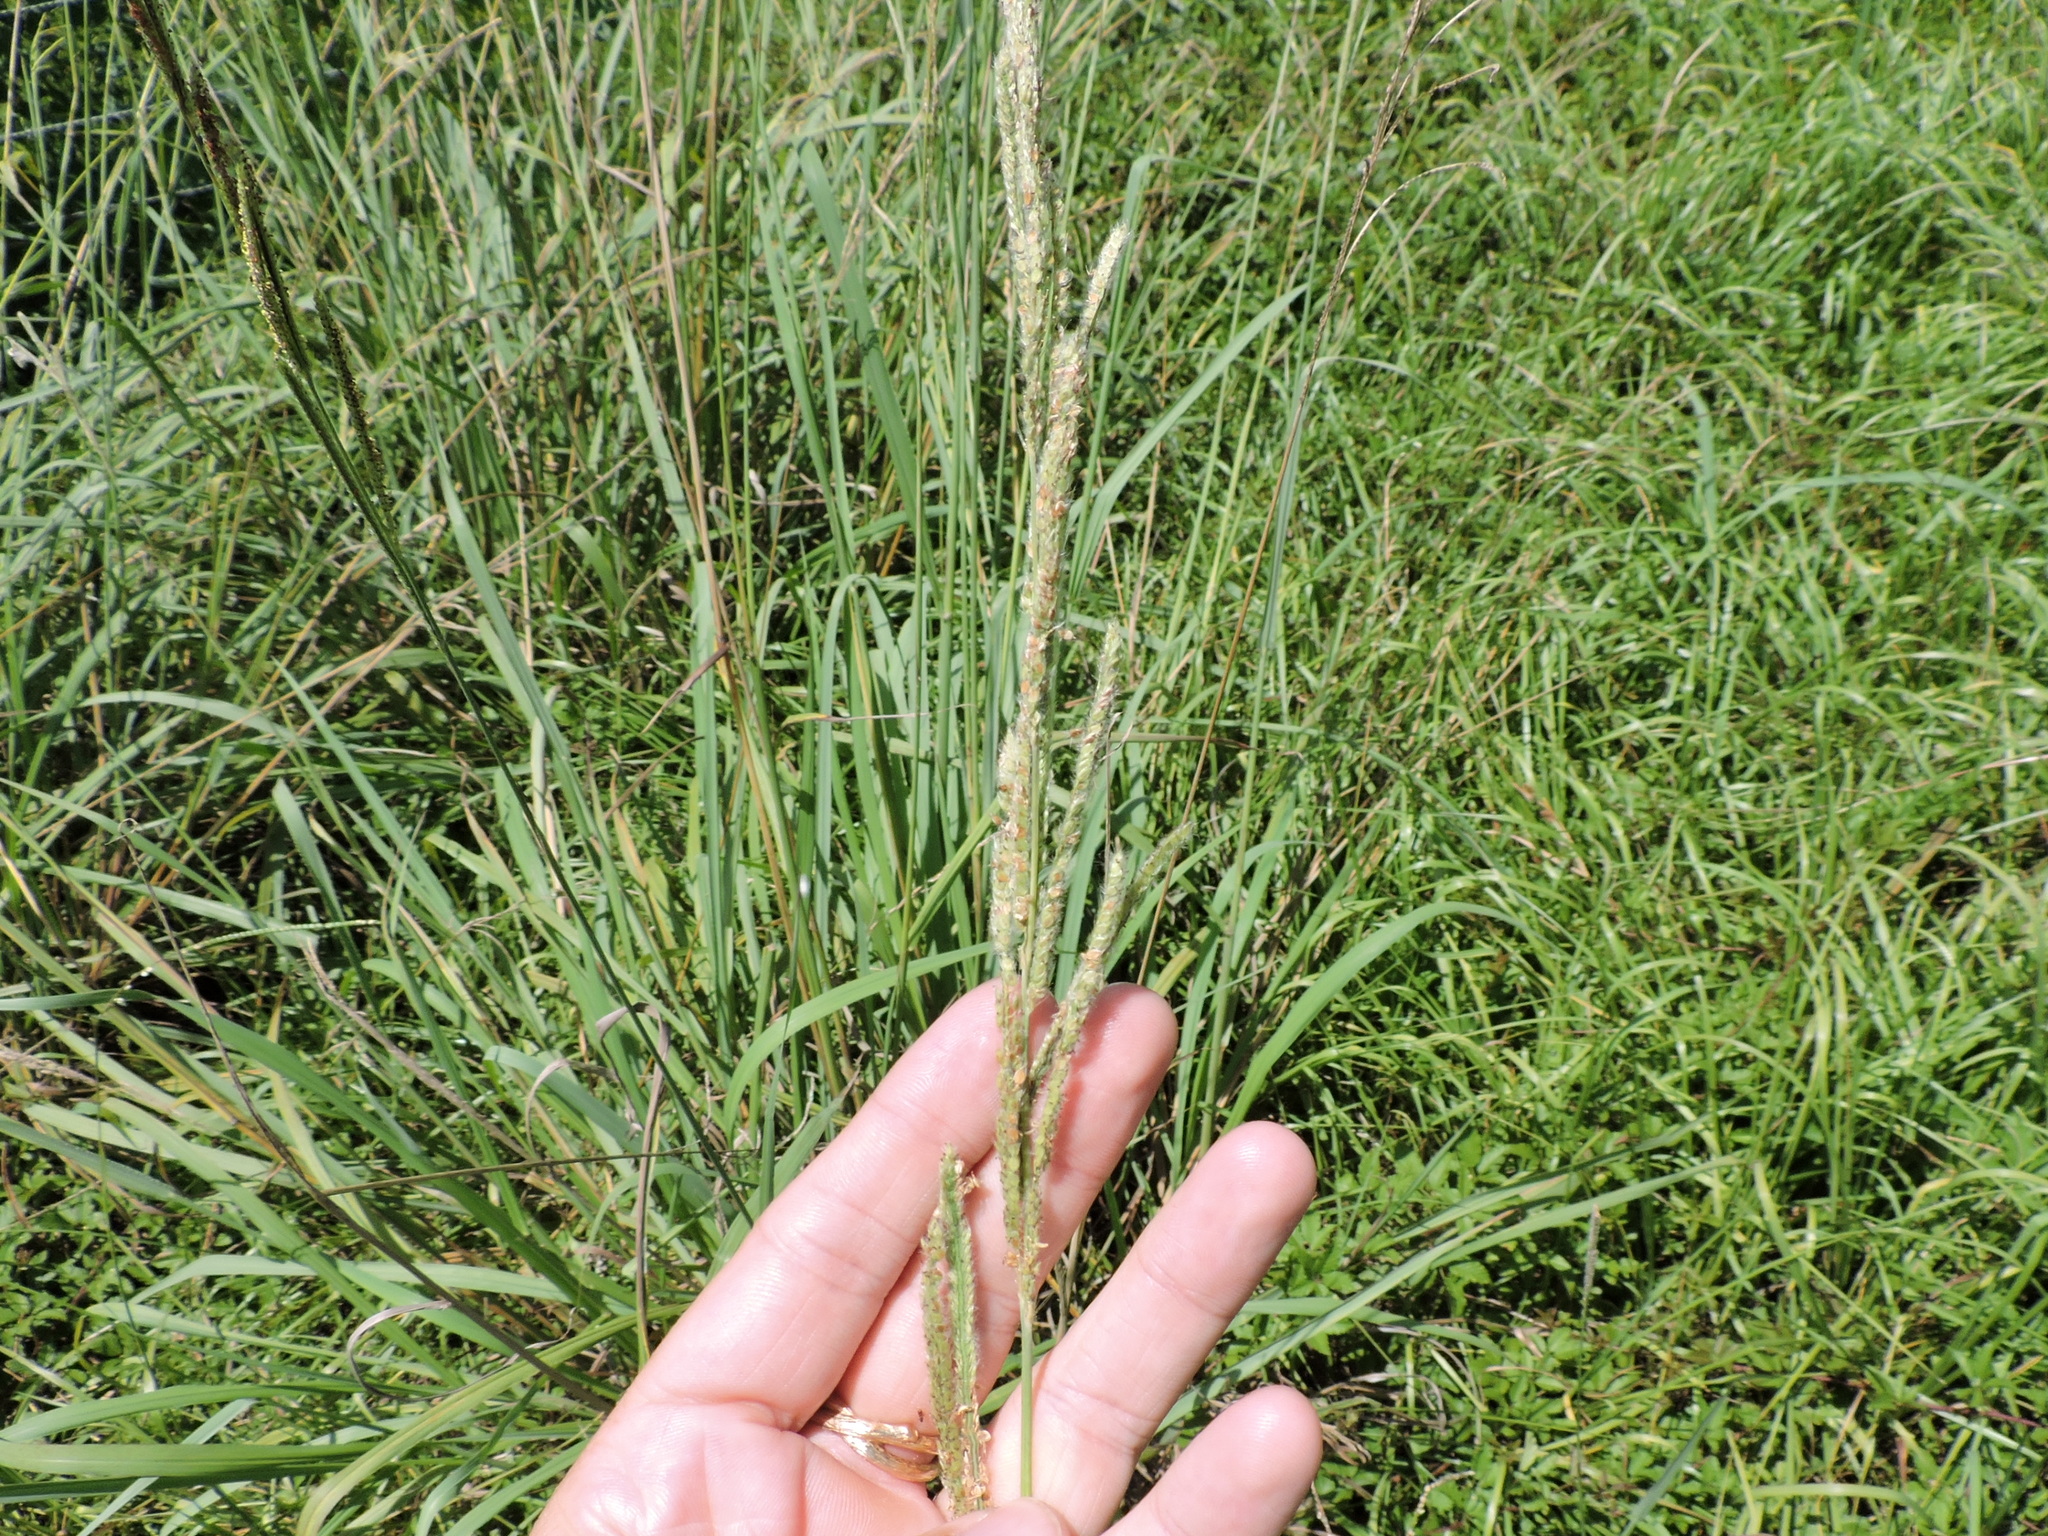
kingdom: Plantae
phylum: Tracheophyta
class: Liliopsida
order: Poales
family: Poaceae
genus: Paspalum
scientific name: Paspalum urvillei
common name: Vasey's grass
